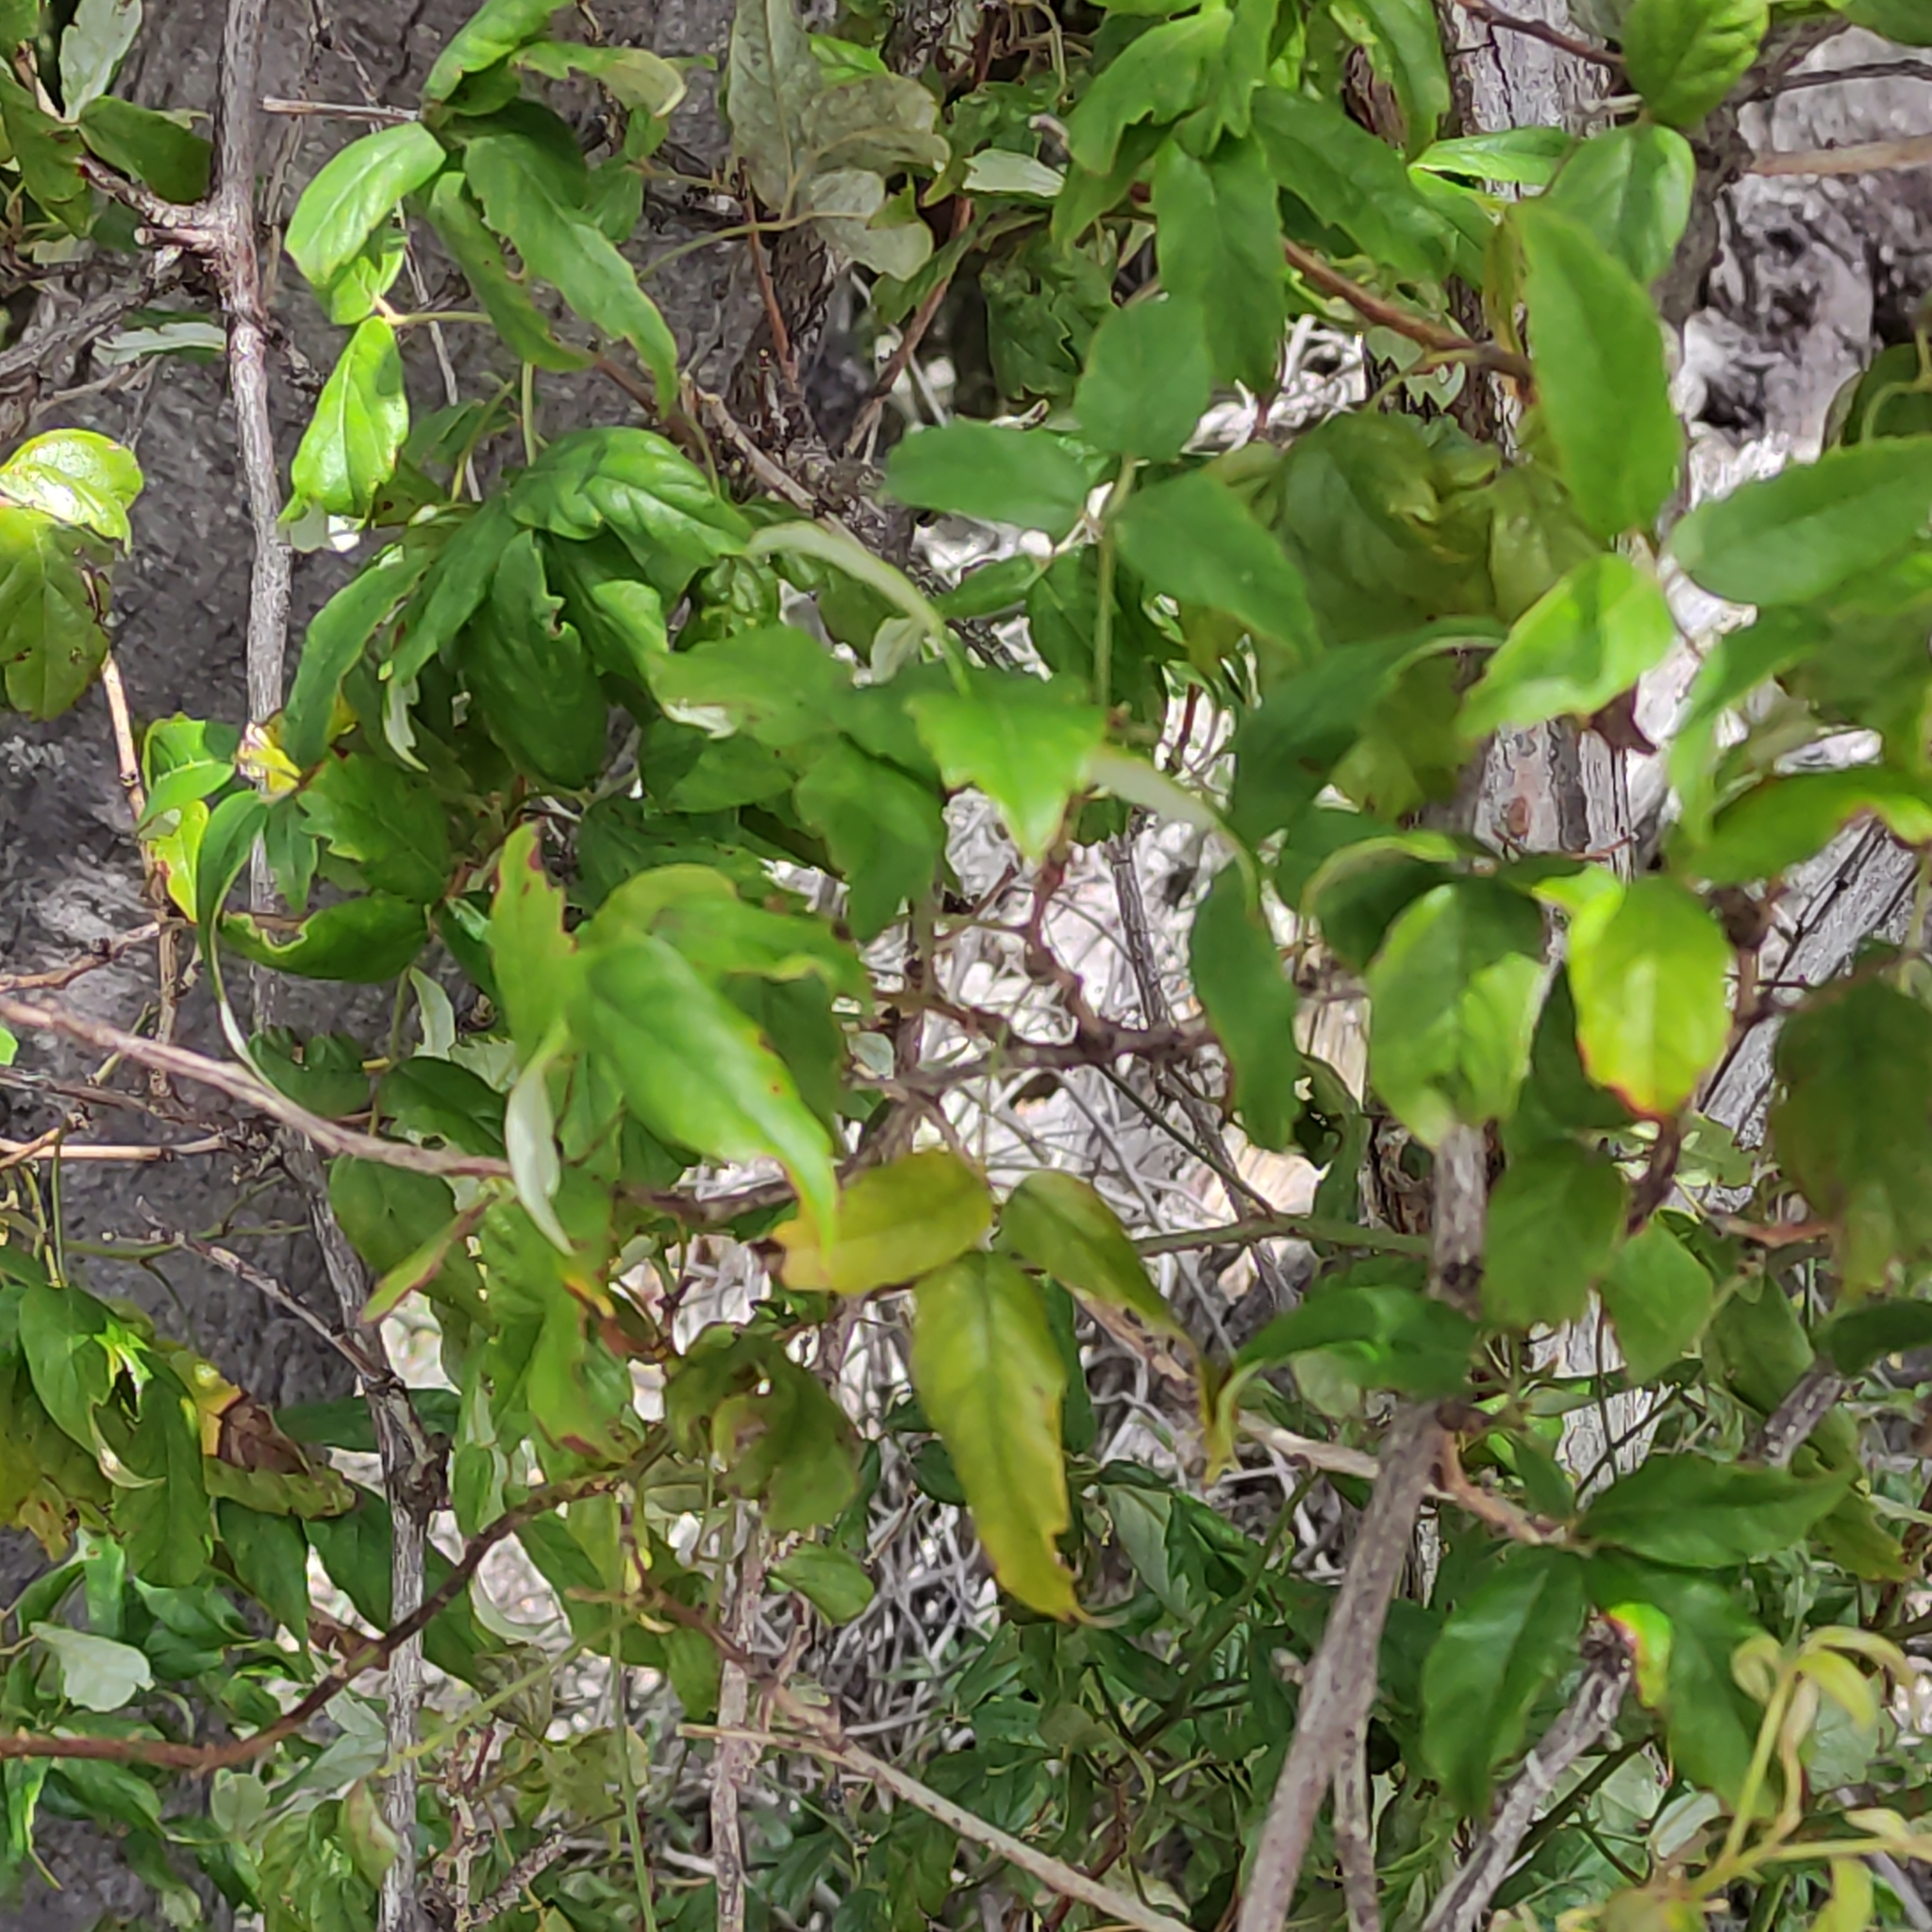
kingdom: Plantae
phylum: Tracheophyta
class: Magnoliopsida
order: Rosales
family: Rosaceae
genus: Rubus
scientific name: Rubus schmidelioides
